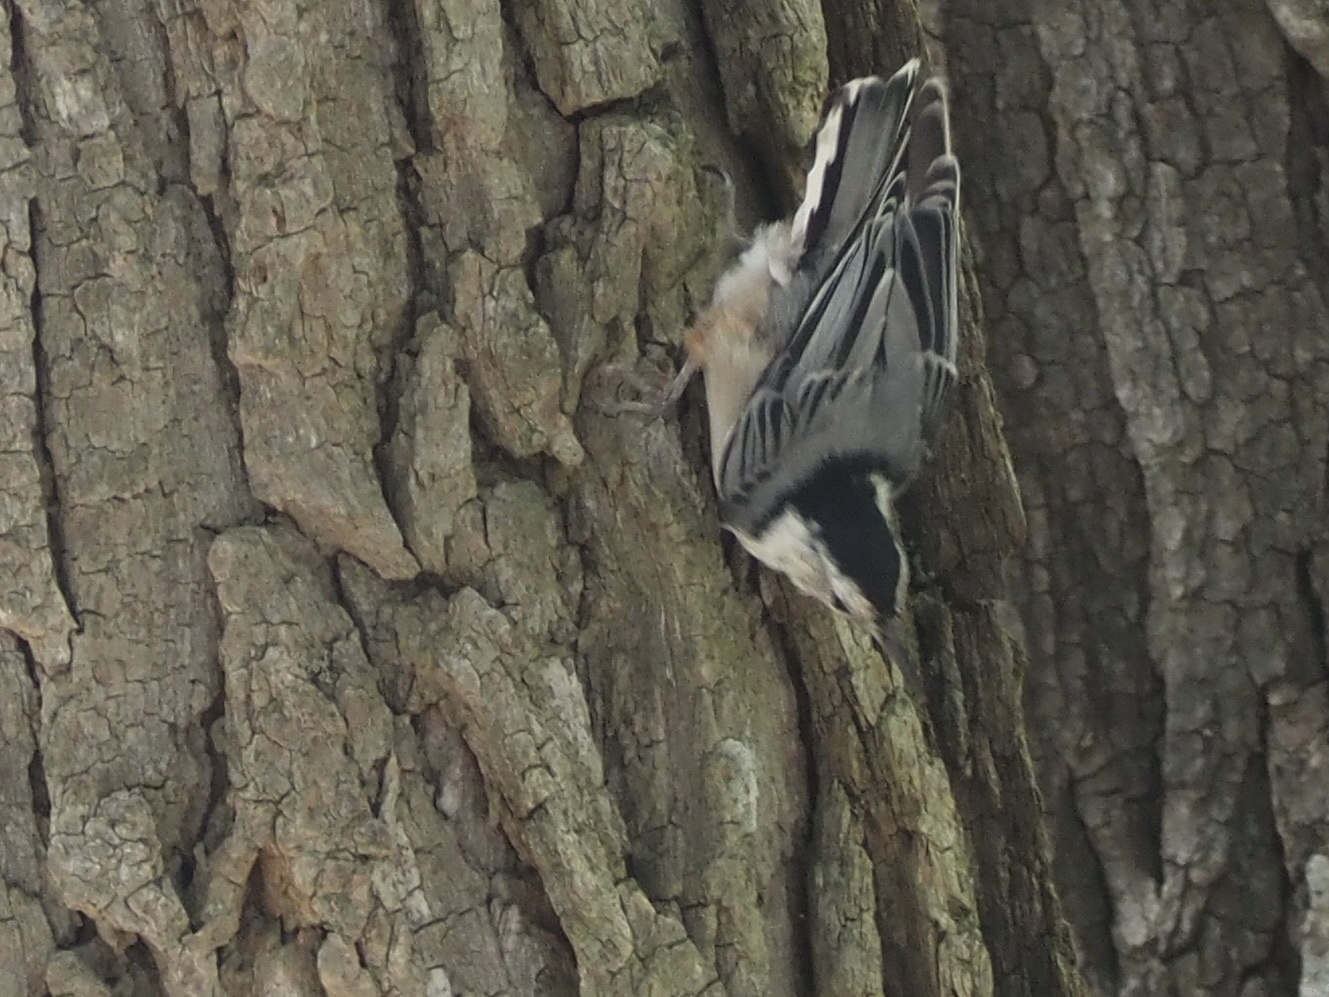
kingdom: Animalia
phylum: Chordata
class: Aves
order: Passeriformes
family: Sittidae
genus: Sitta
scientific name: Sitta carolinensis
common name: White-breasted nuthatch
